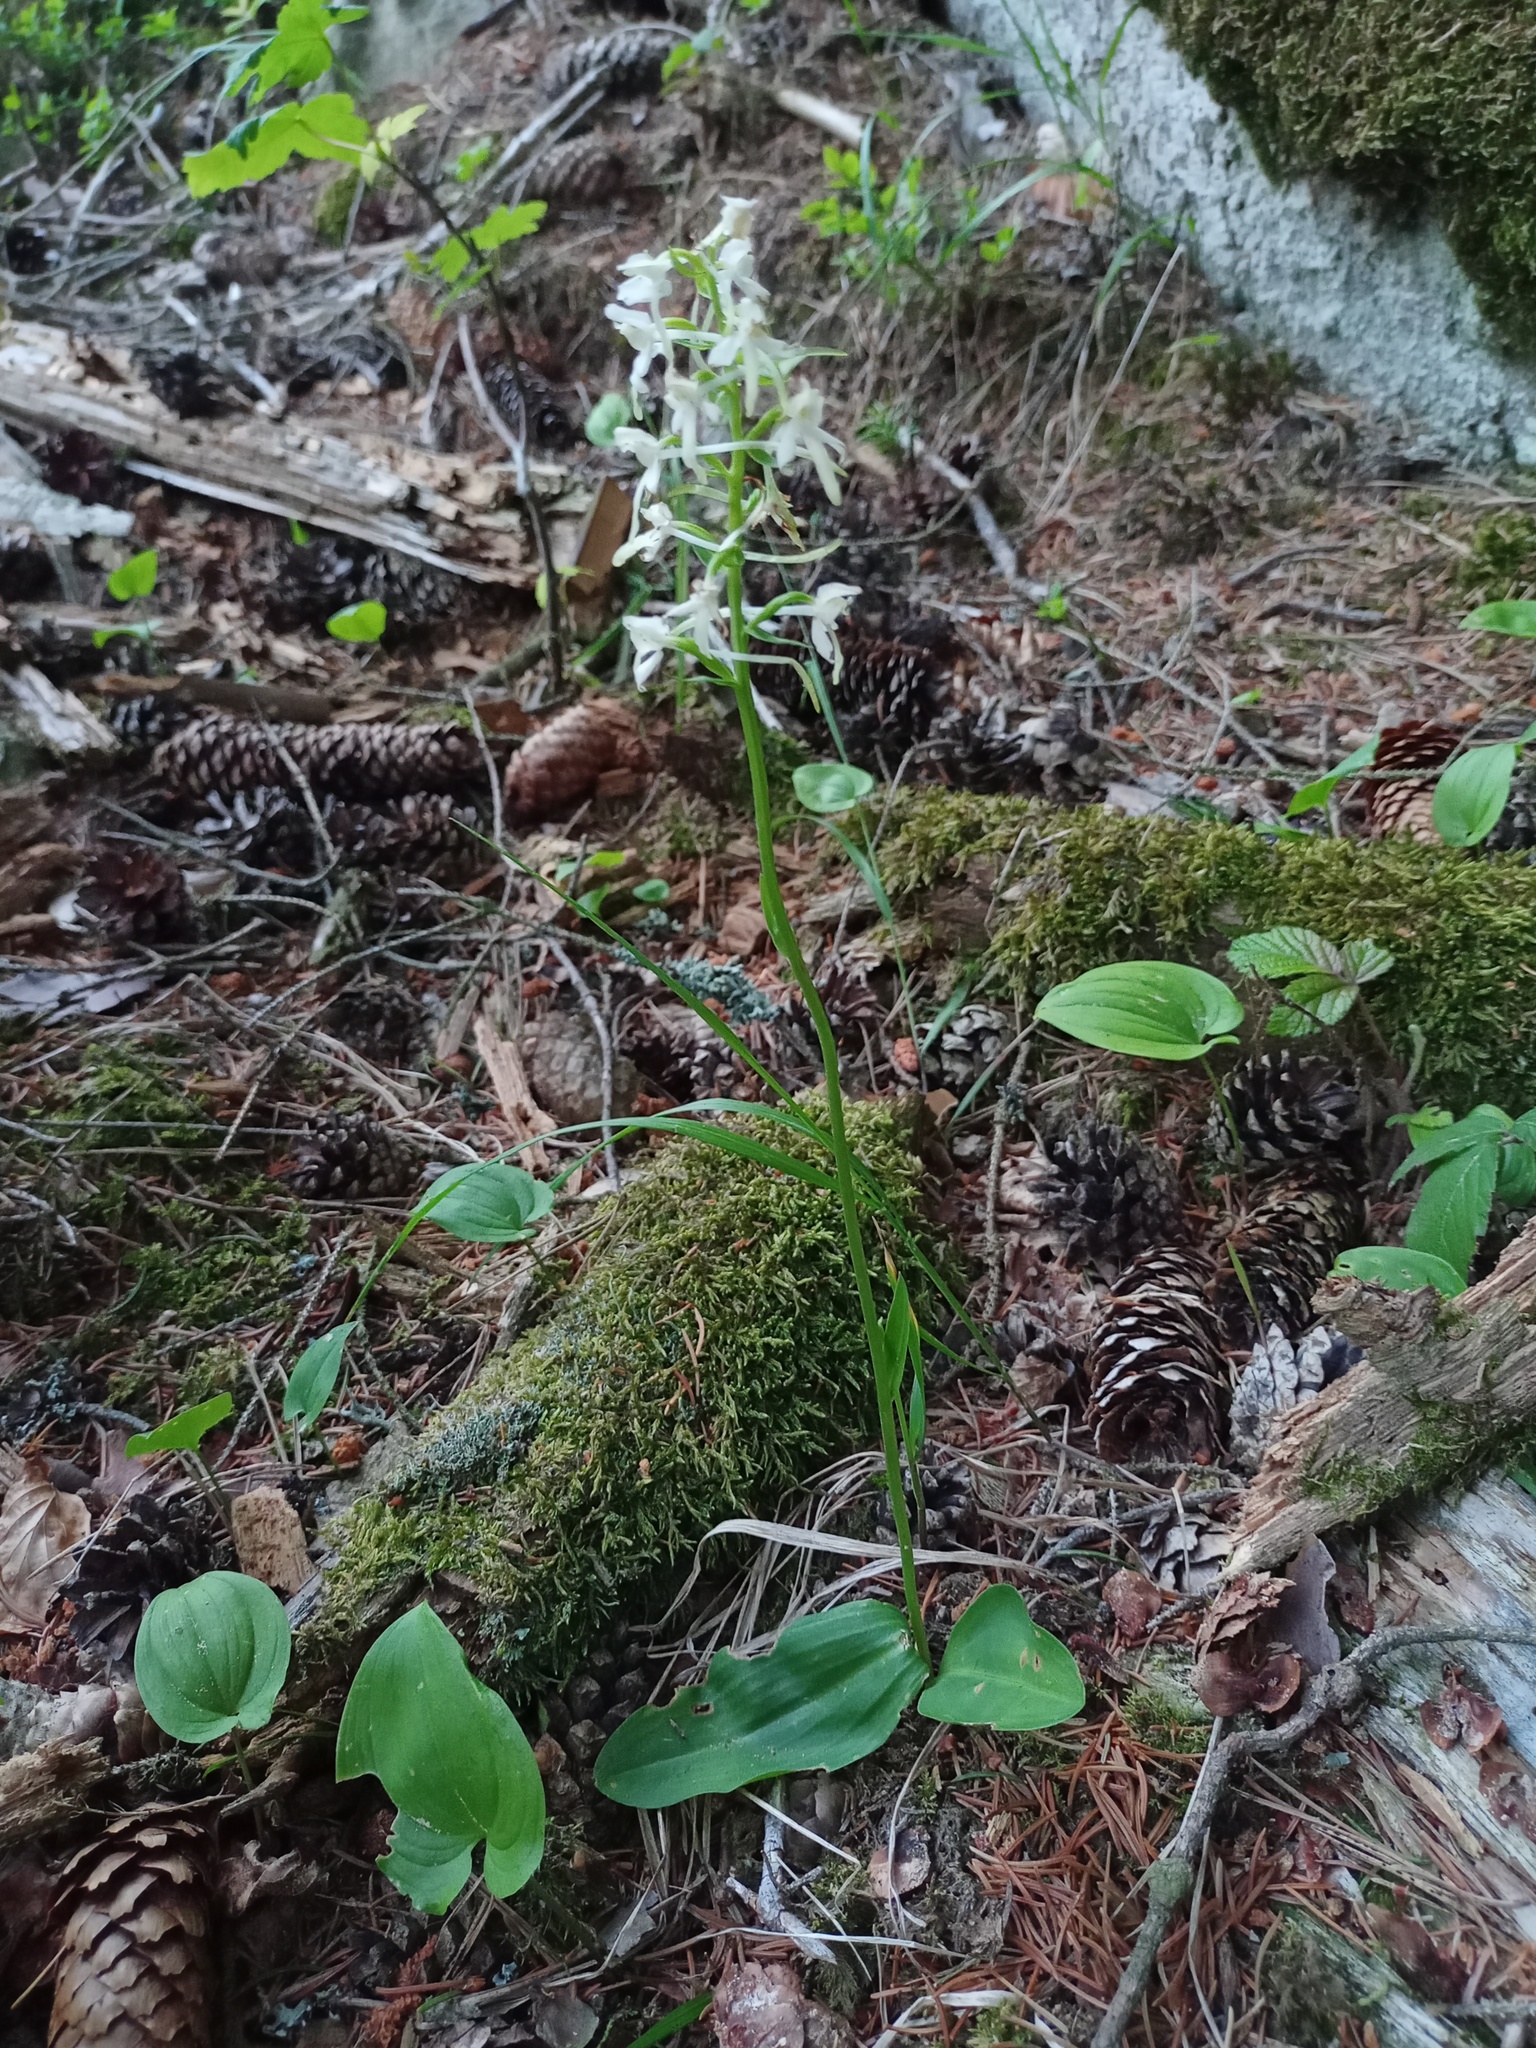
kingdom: Plantae
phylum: Tracheophyta
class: Liliopsida
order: Asparagales
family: Orchidaceae
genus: Platanthera
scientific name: Platanthera bifolia
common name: Lesser butterfly-orchid
